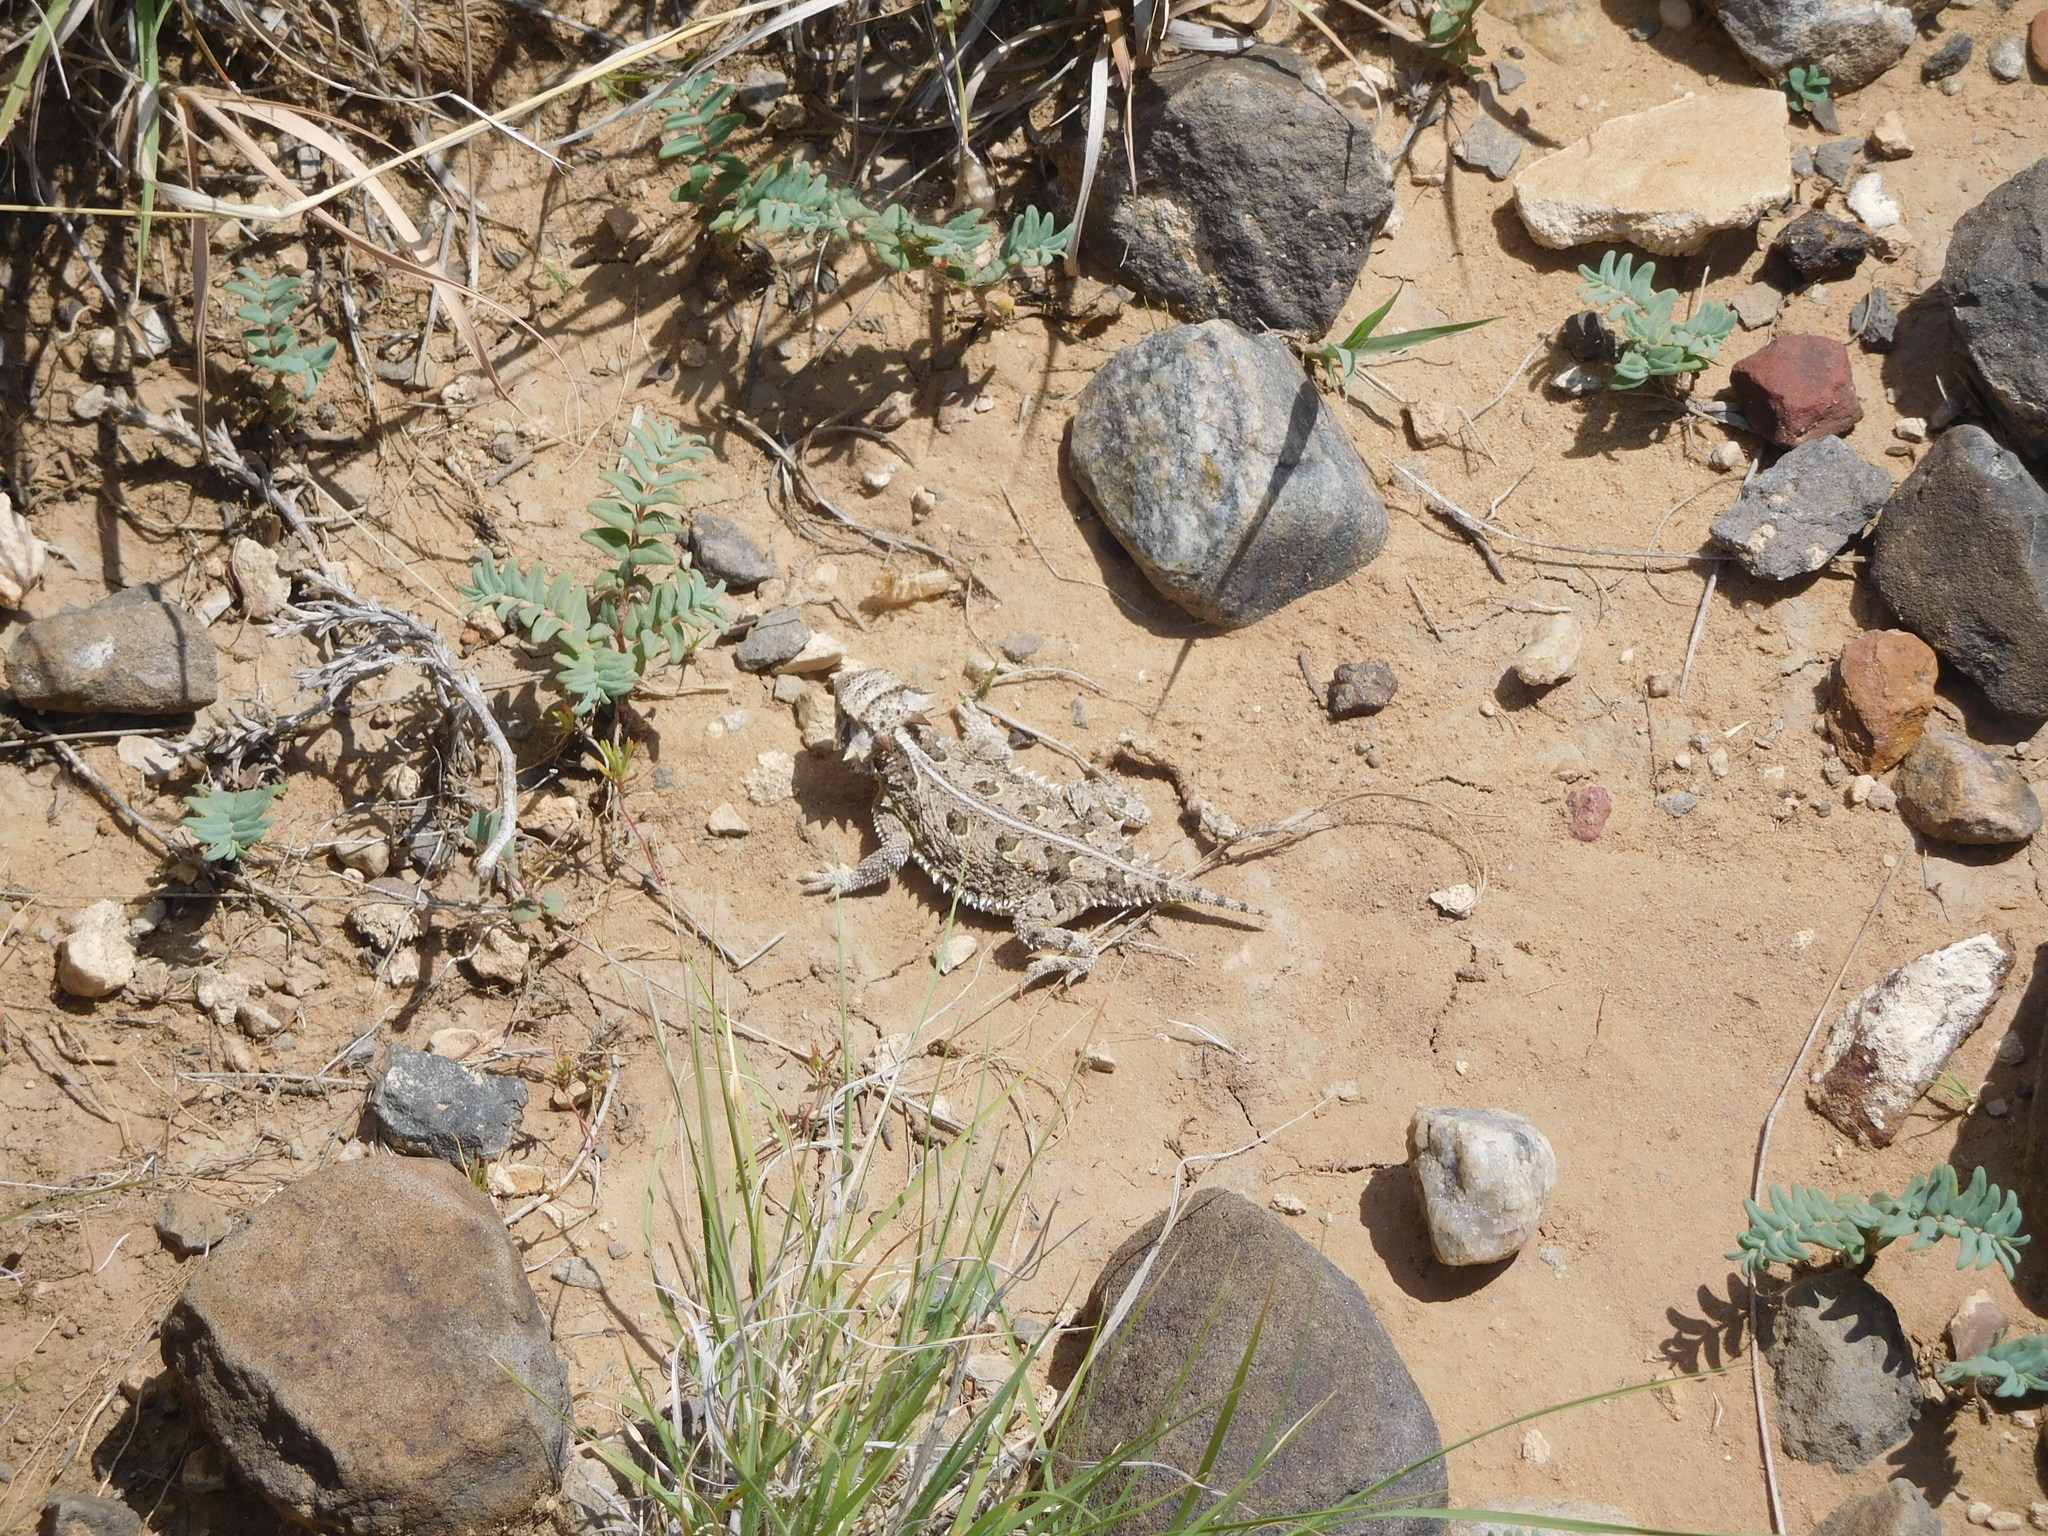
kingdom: Animalia
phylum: Chordata
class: Squamata
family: Phrynosomatidae
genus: Phrynosoma
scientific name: Phrynosoma cornutum
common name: Texas horned lizard
